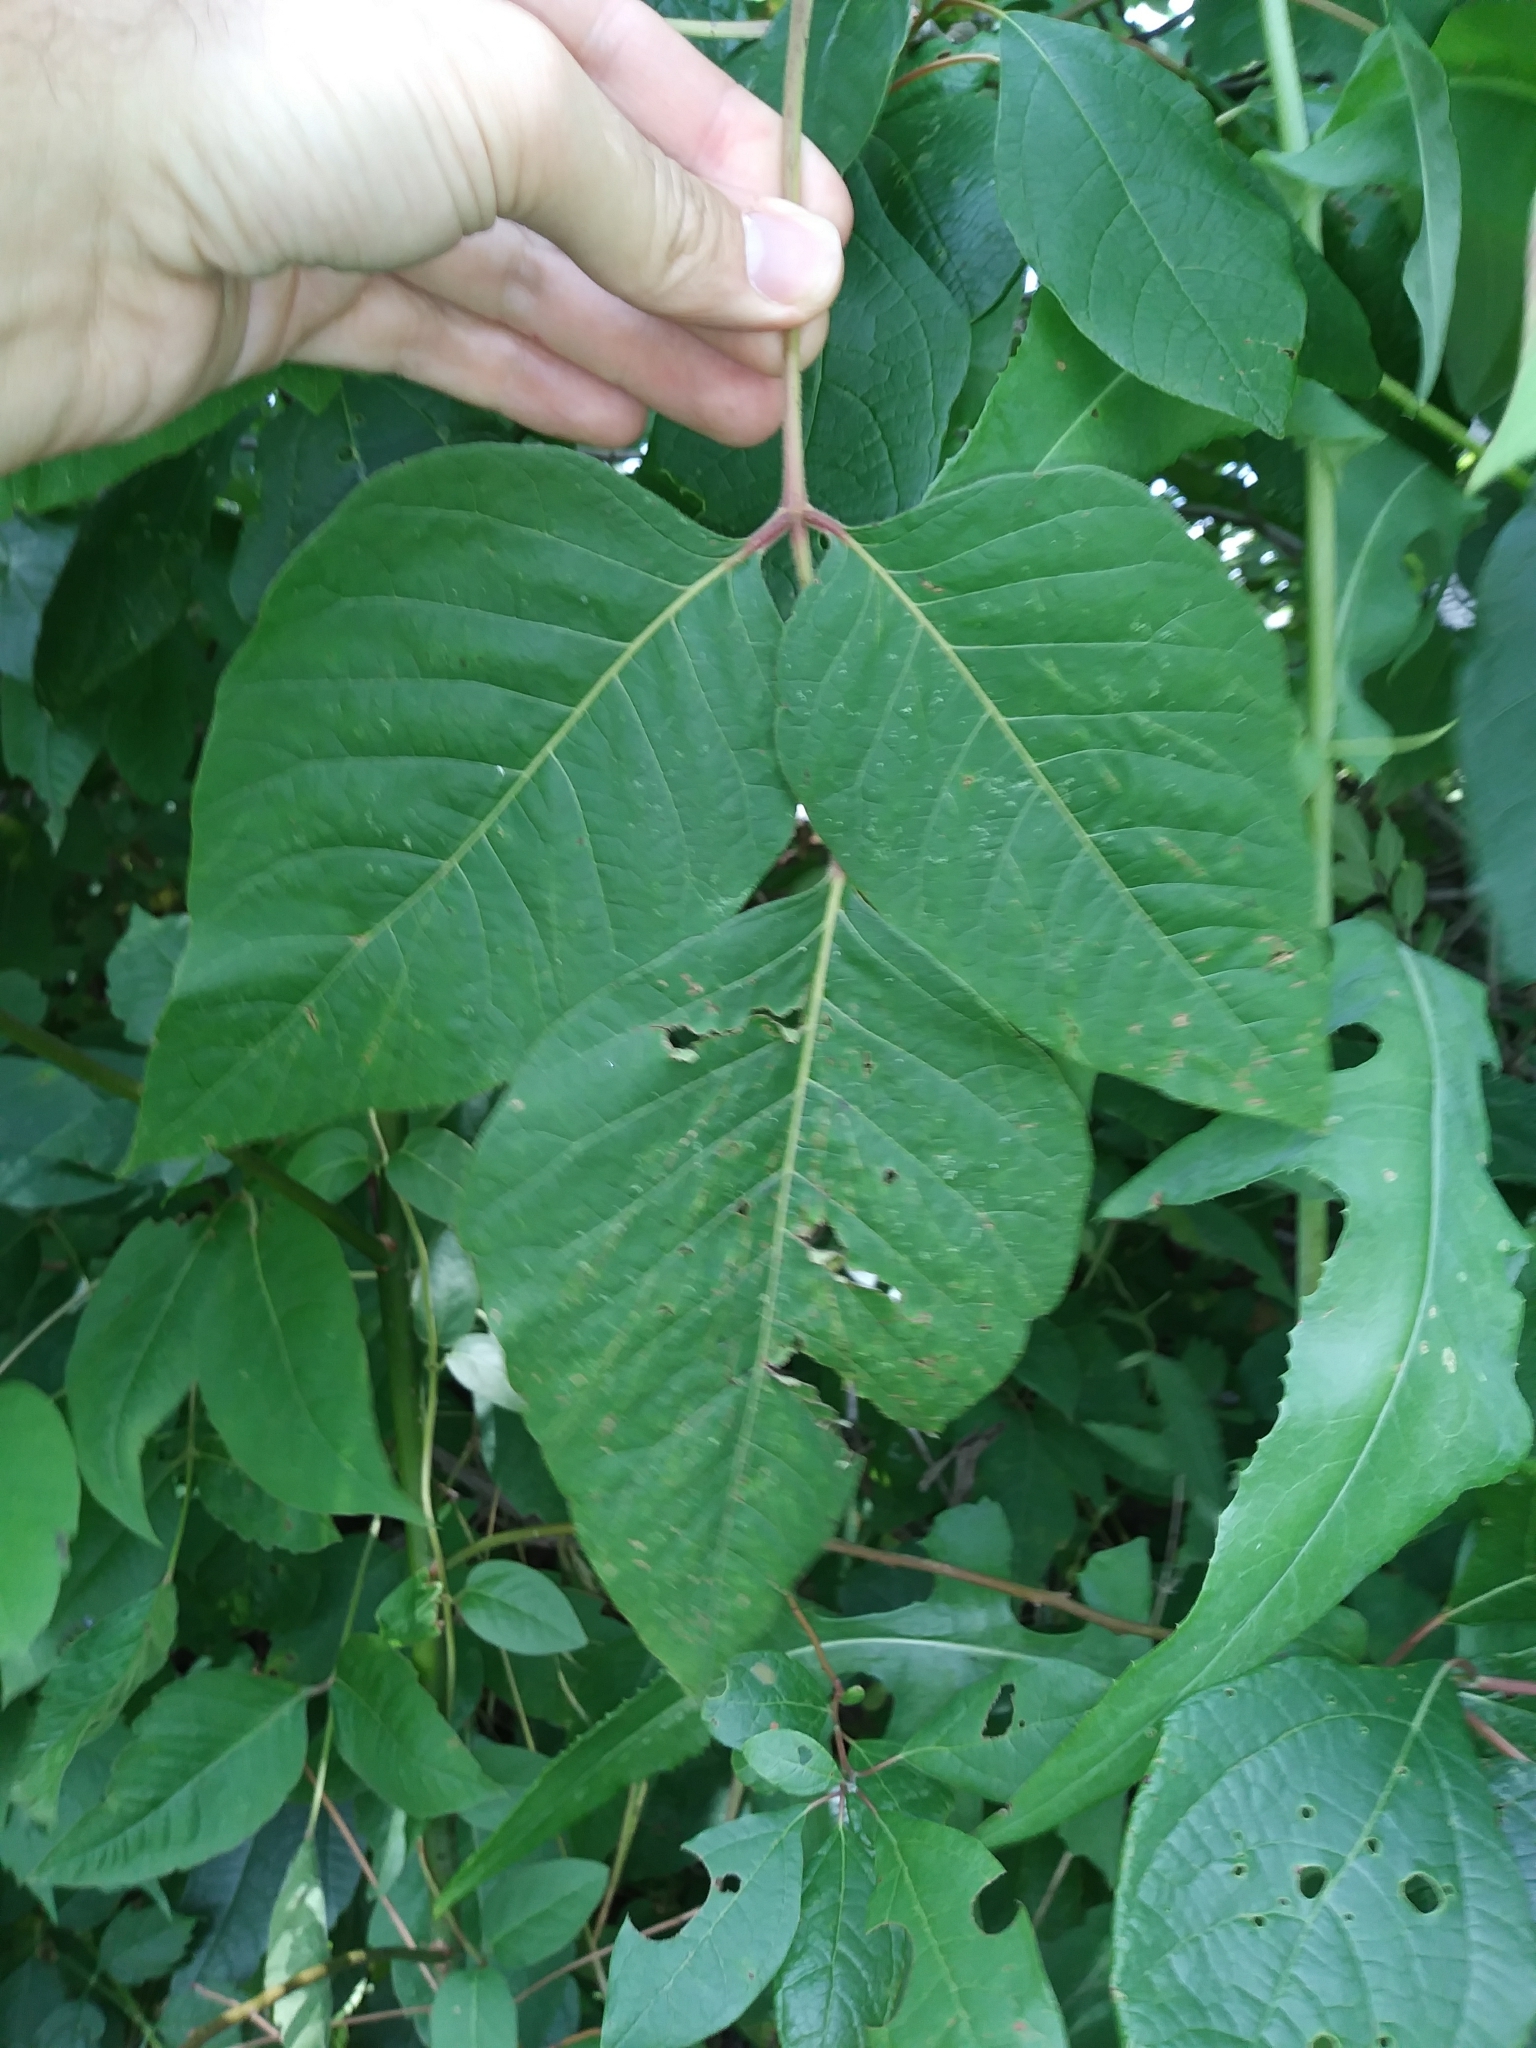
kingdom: Plantae
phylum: Tracheophyta
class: Magnoliopsida
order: Sapindales
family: Anacardiaceae
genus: Toxicodendron
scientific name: Toxicodendron radicans
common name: Poison ivy
